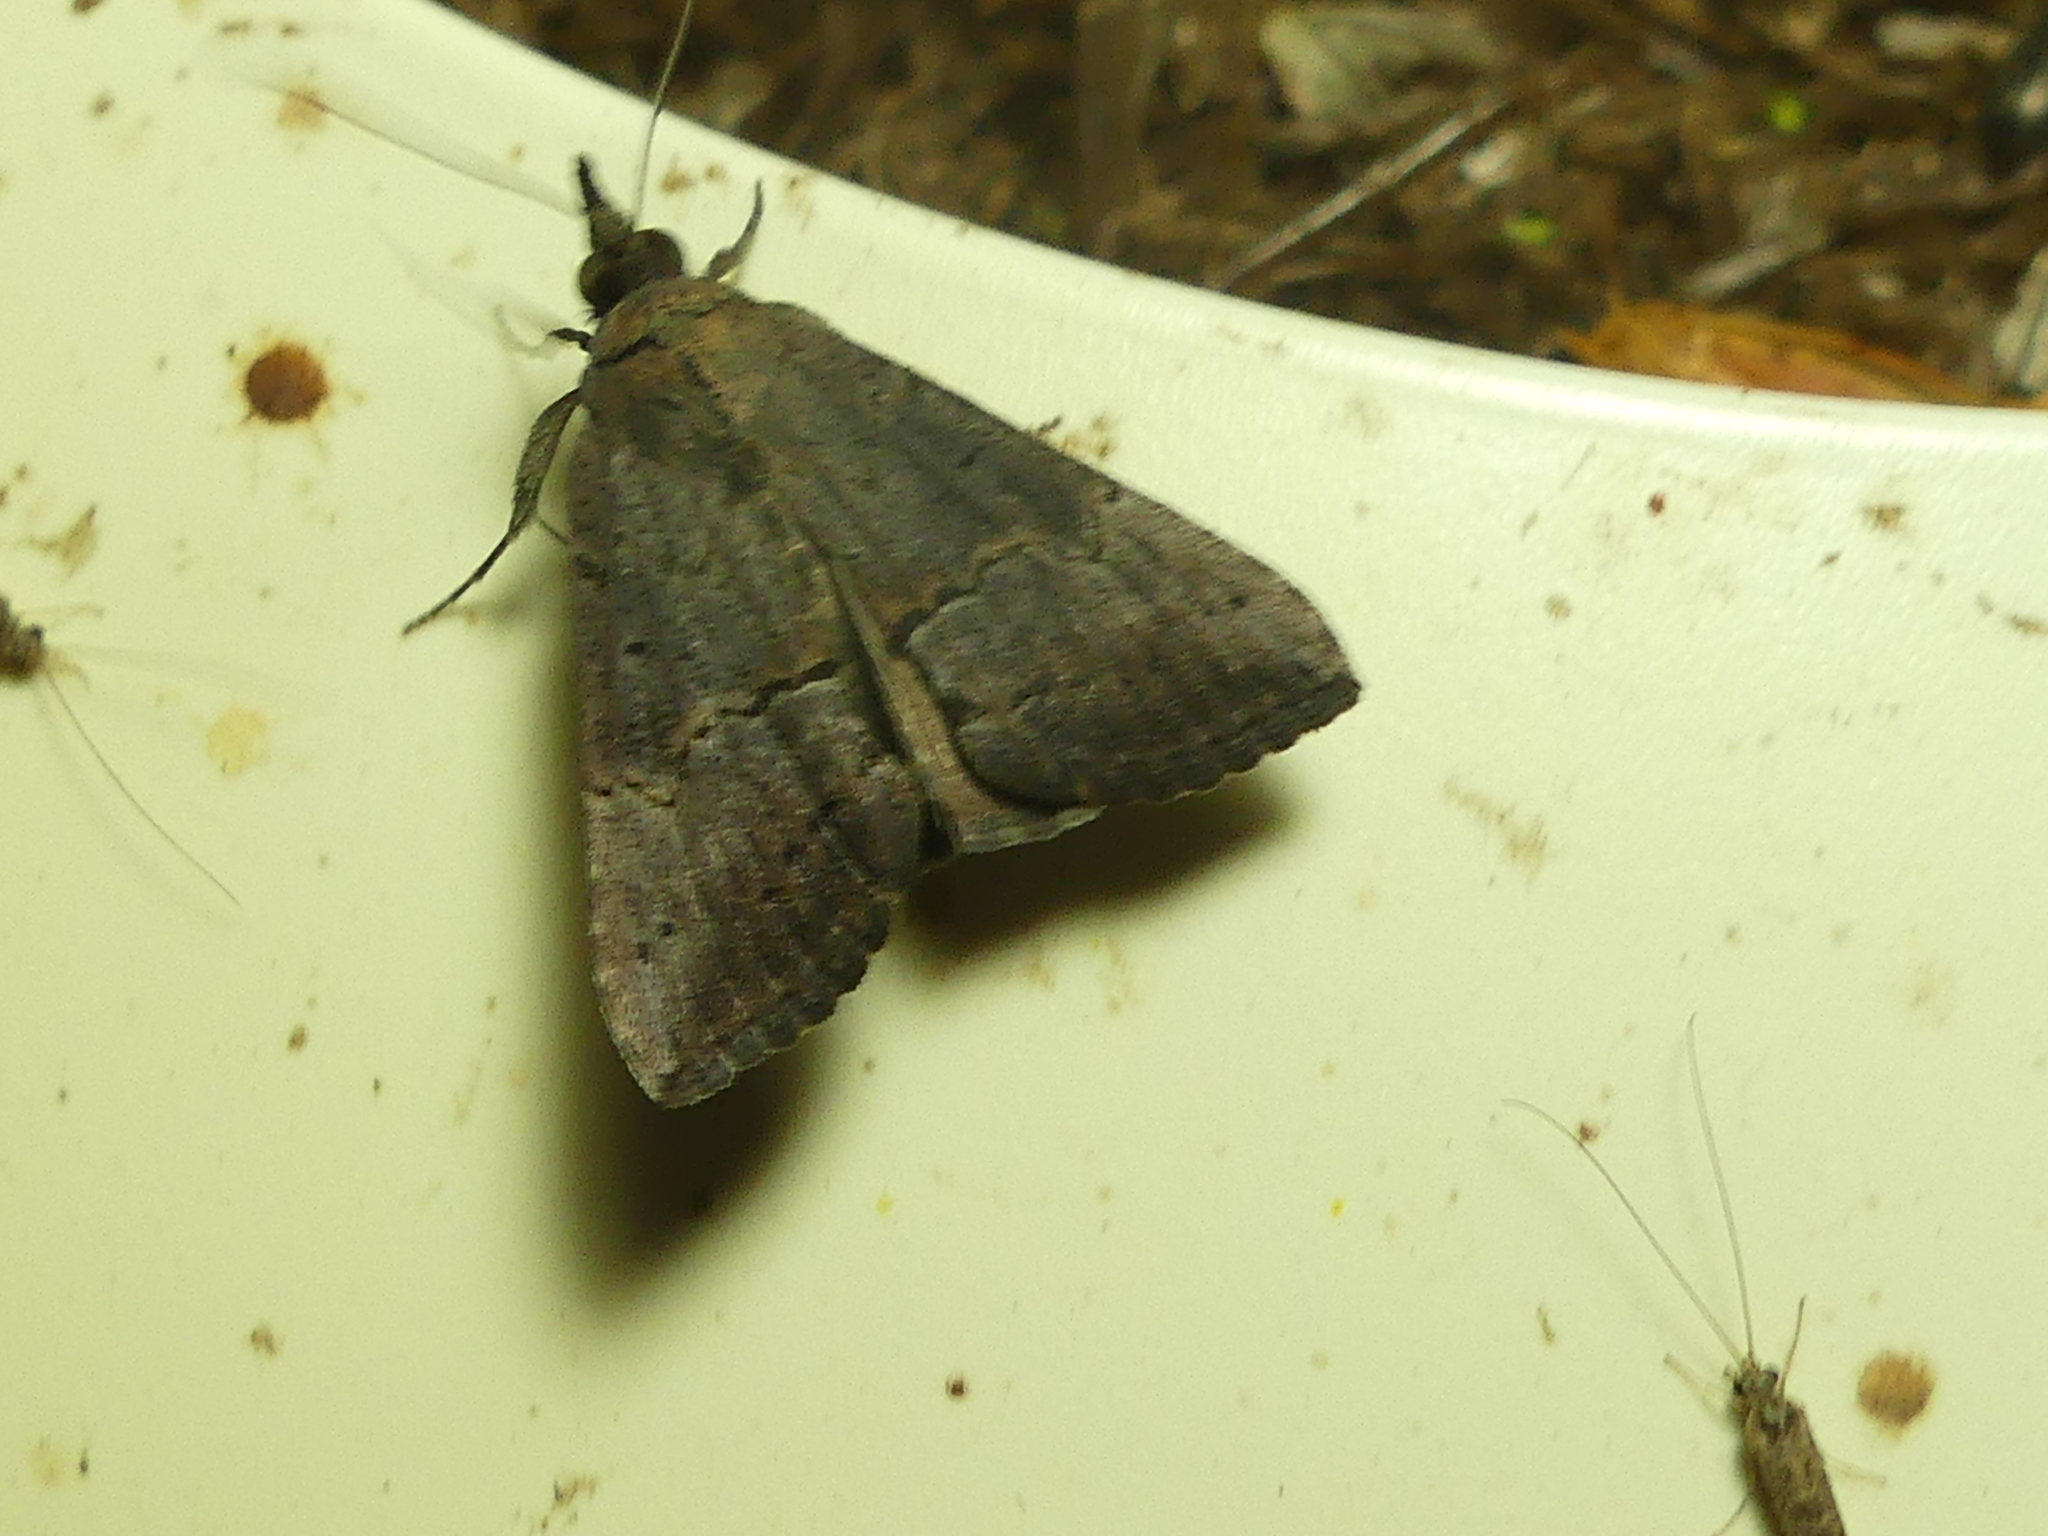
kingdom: Animalia
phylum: Arthropoda
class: Insecta
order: Lepidoptera
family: Erebidae
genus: Hypena
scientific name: Hypena scabra
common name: Green cloverworm
